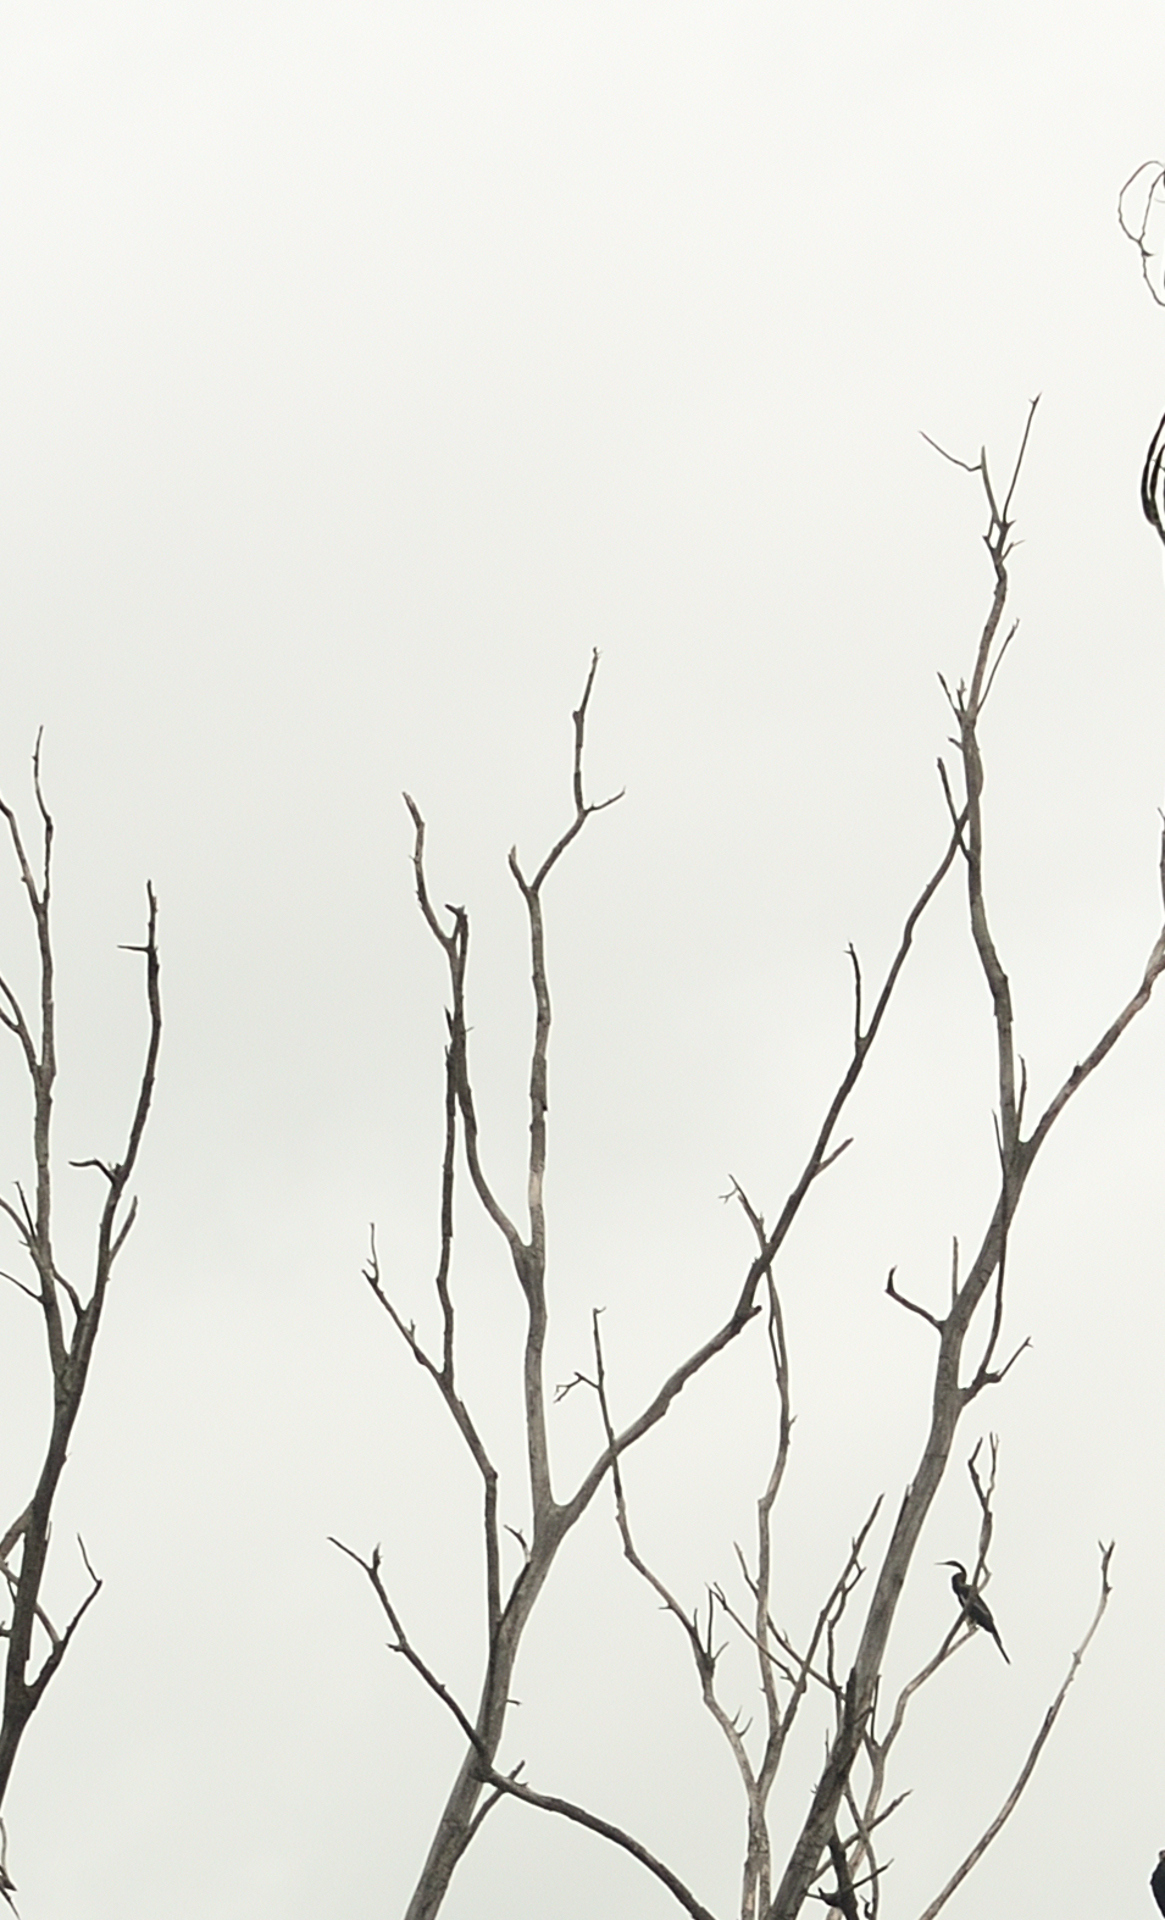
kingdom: Animalia
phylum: Chordata
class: Aves
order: Suliformes
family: Anhingidae
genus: Anhinga
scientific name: Anhinga melanogaster
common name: Oriental darter
